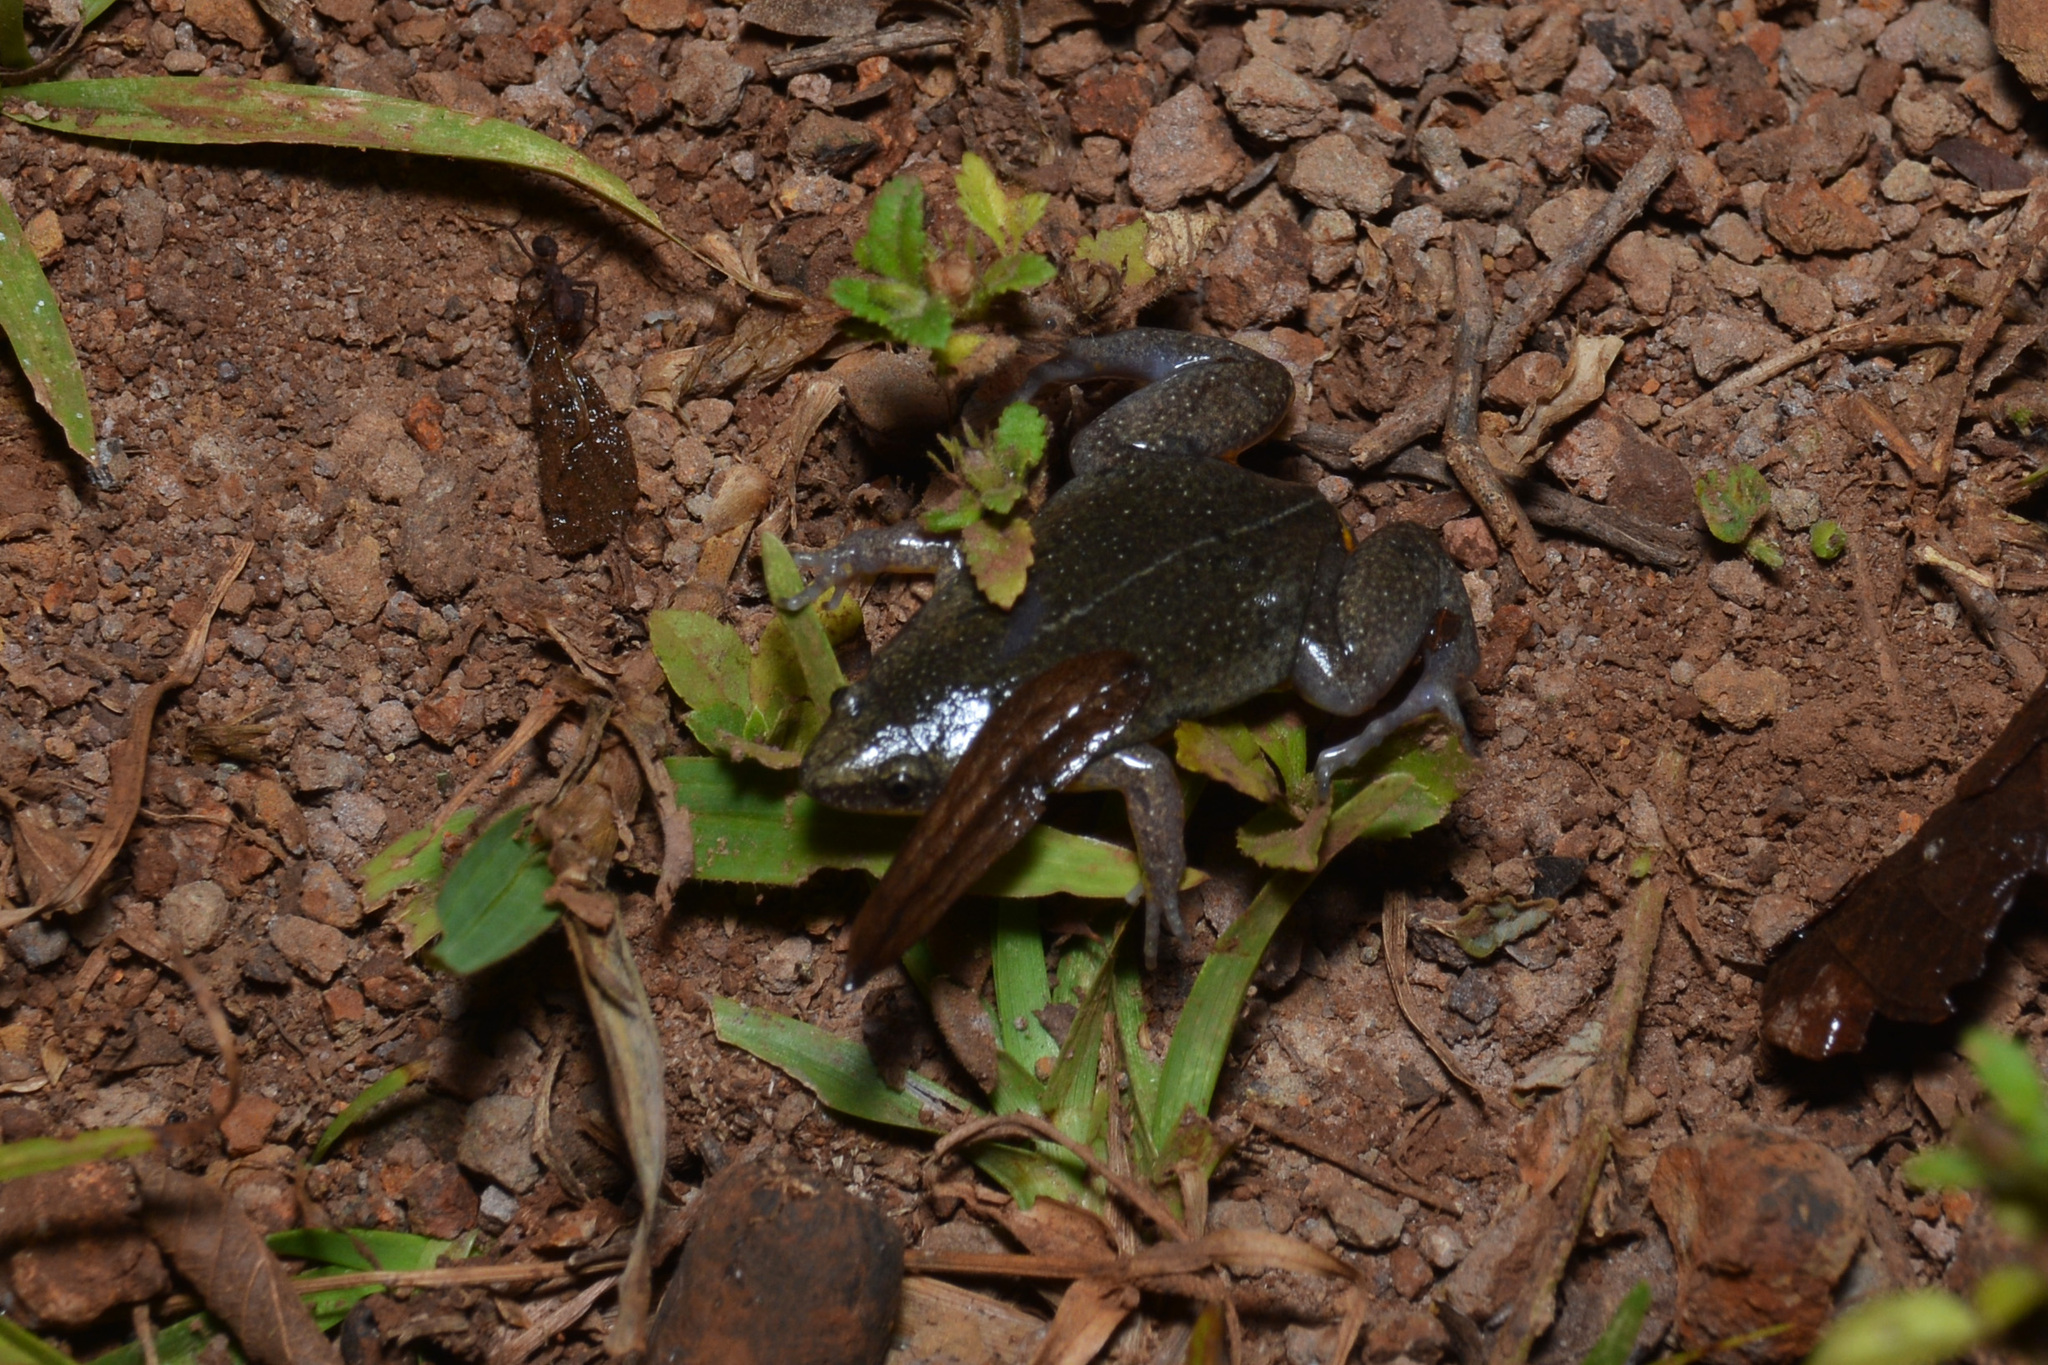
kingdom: Animalia
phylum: Chordata
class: Amphibia
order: Anura
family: Microhylidae
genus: Elachistocleis
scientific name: Elachistocleis bicolor
